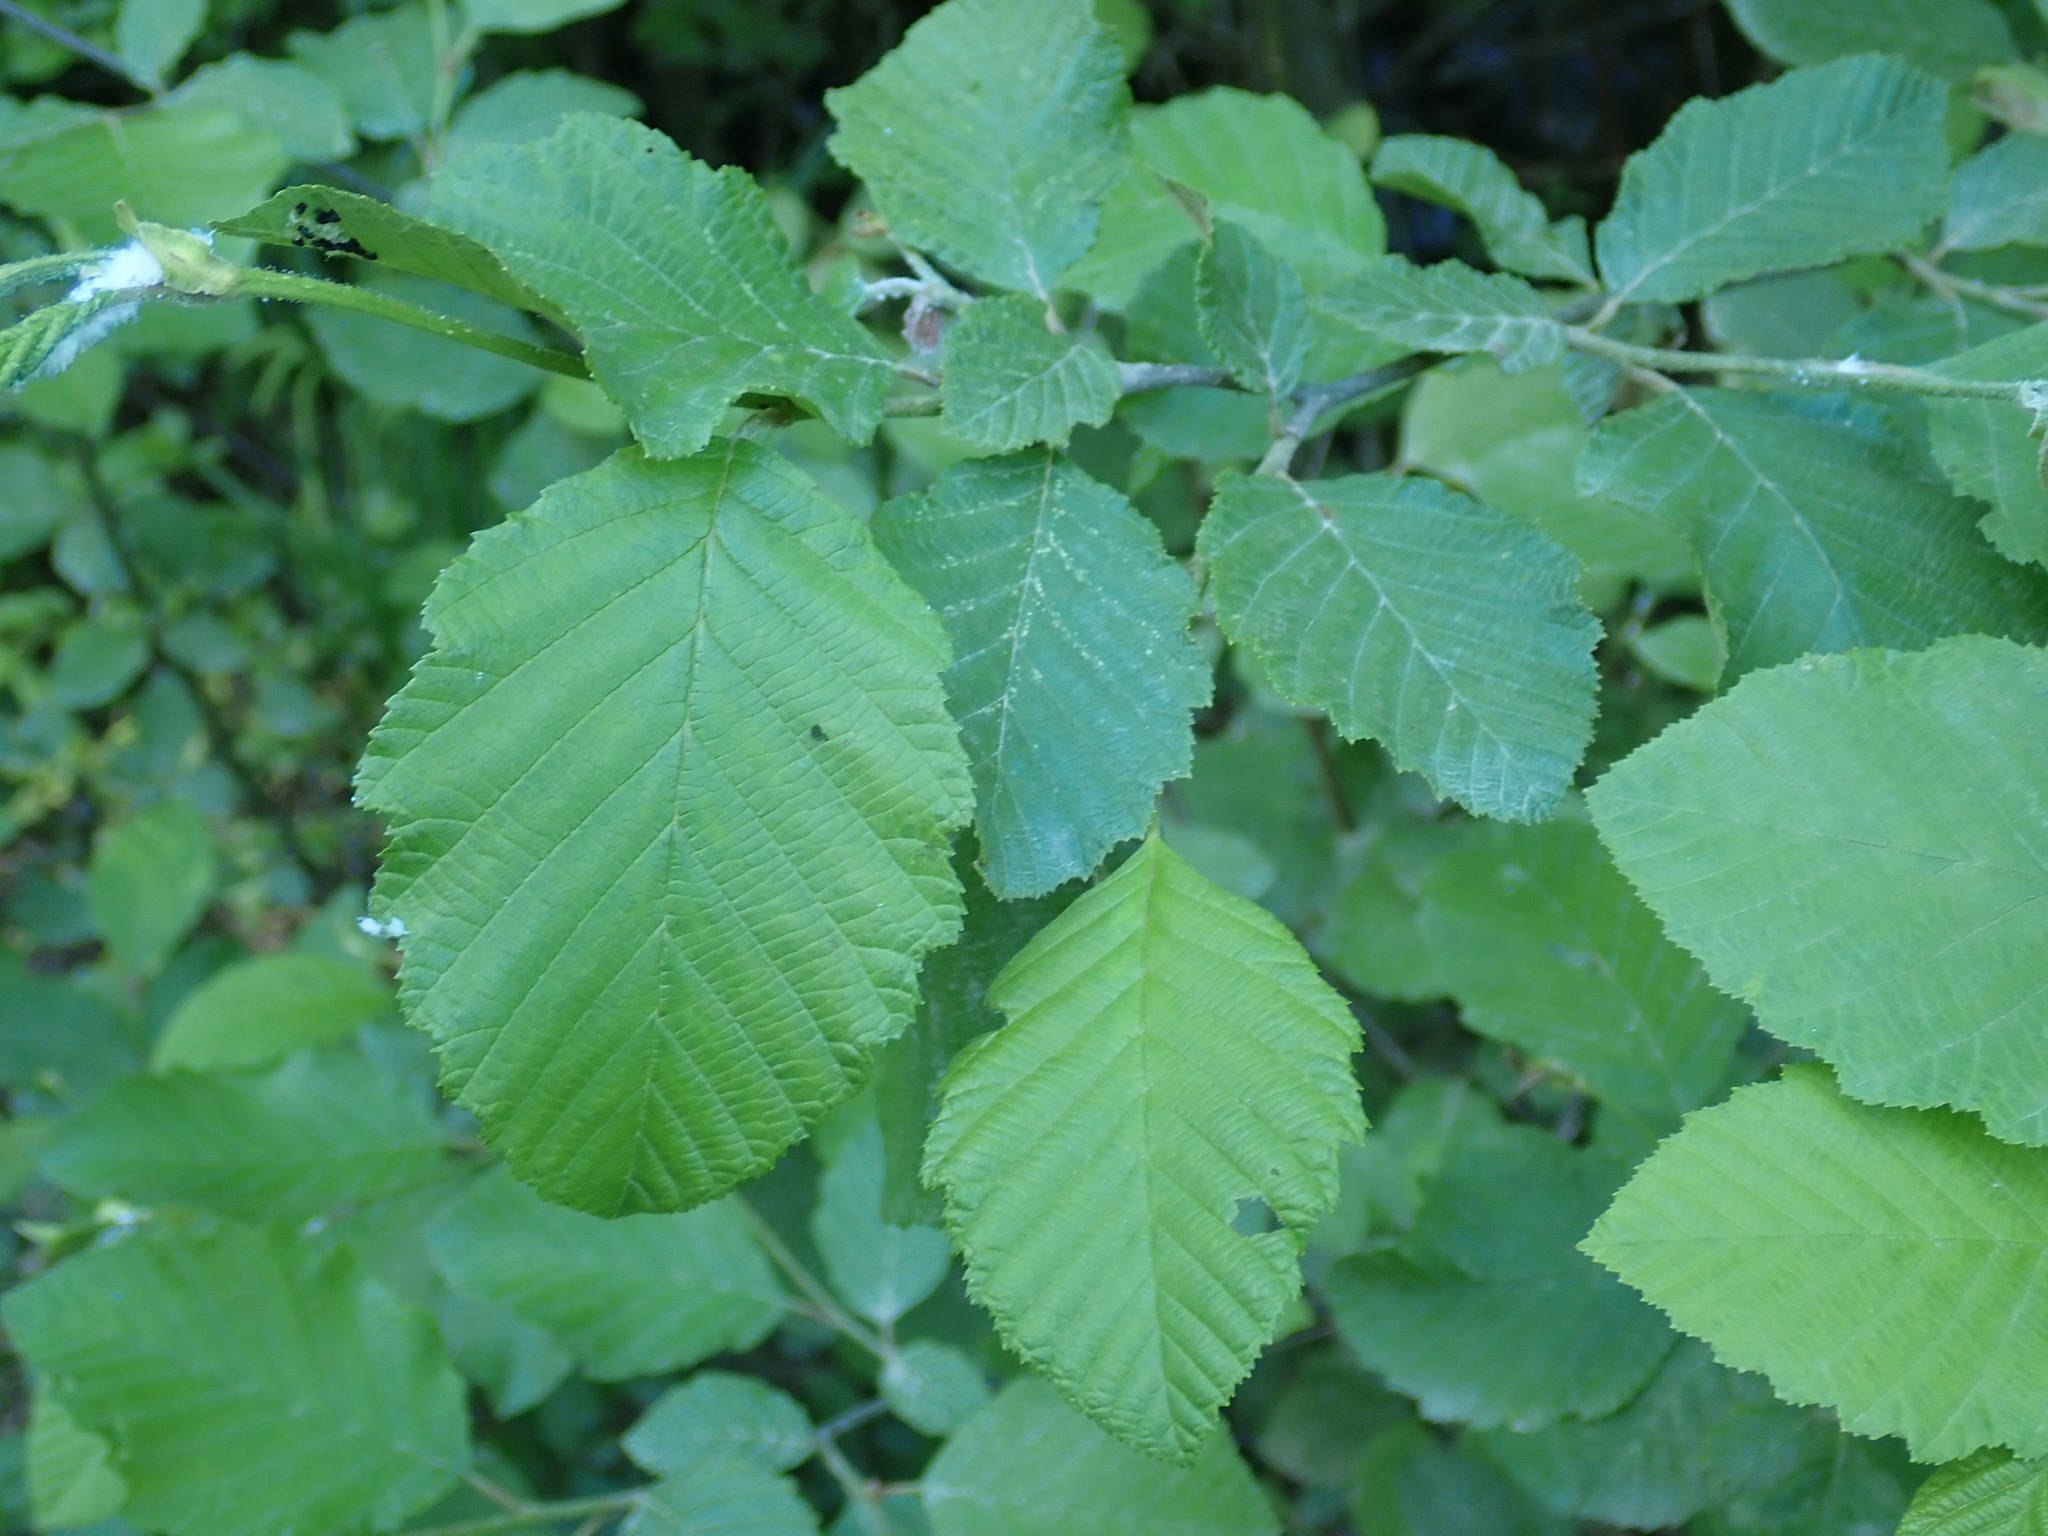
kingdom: Plantae
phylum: Tracheophyta
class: Magnoliopsida
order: Fagales
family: Betulaceae
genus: Alnus
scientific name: Alnus
